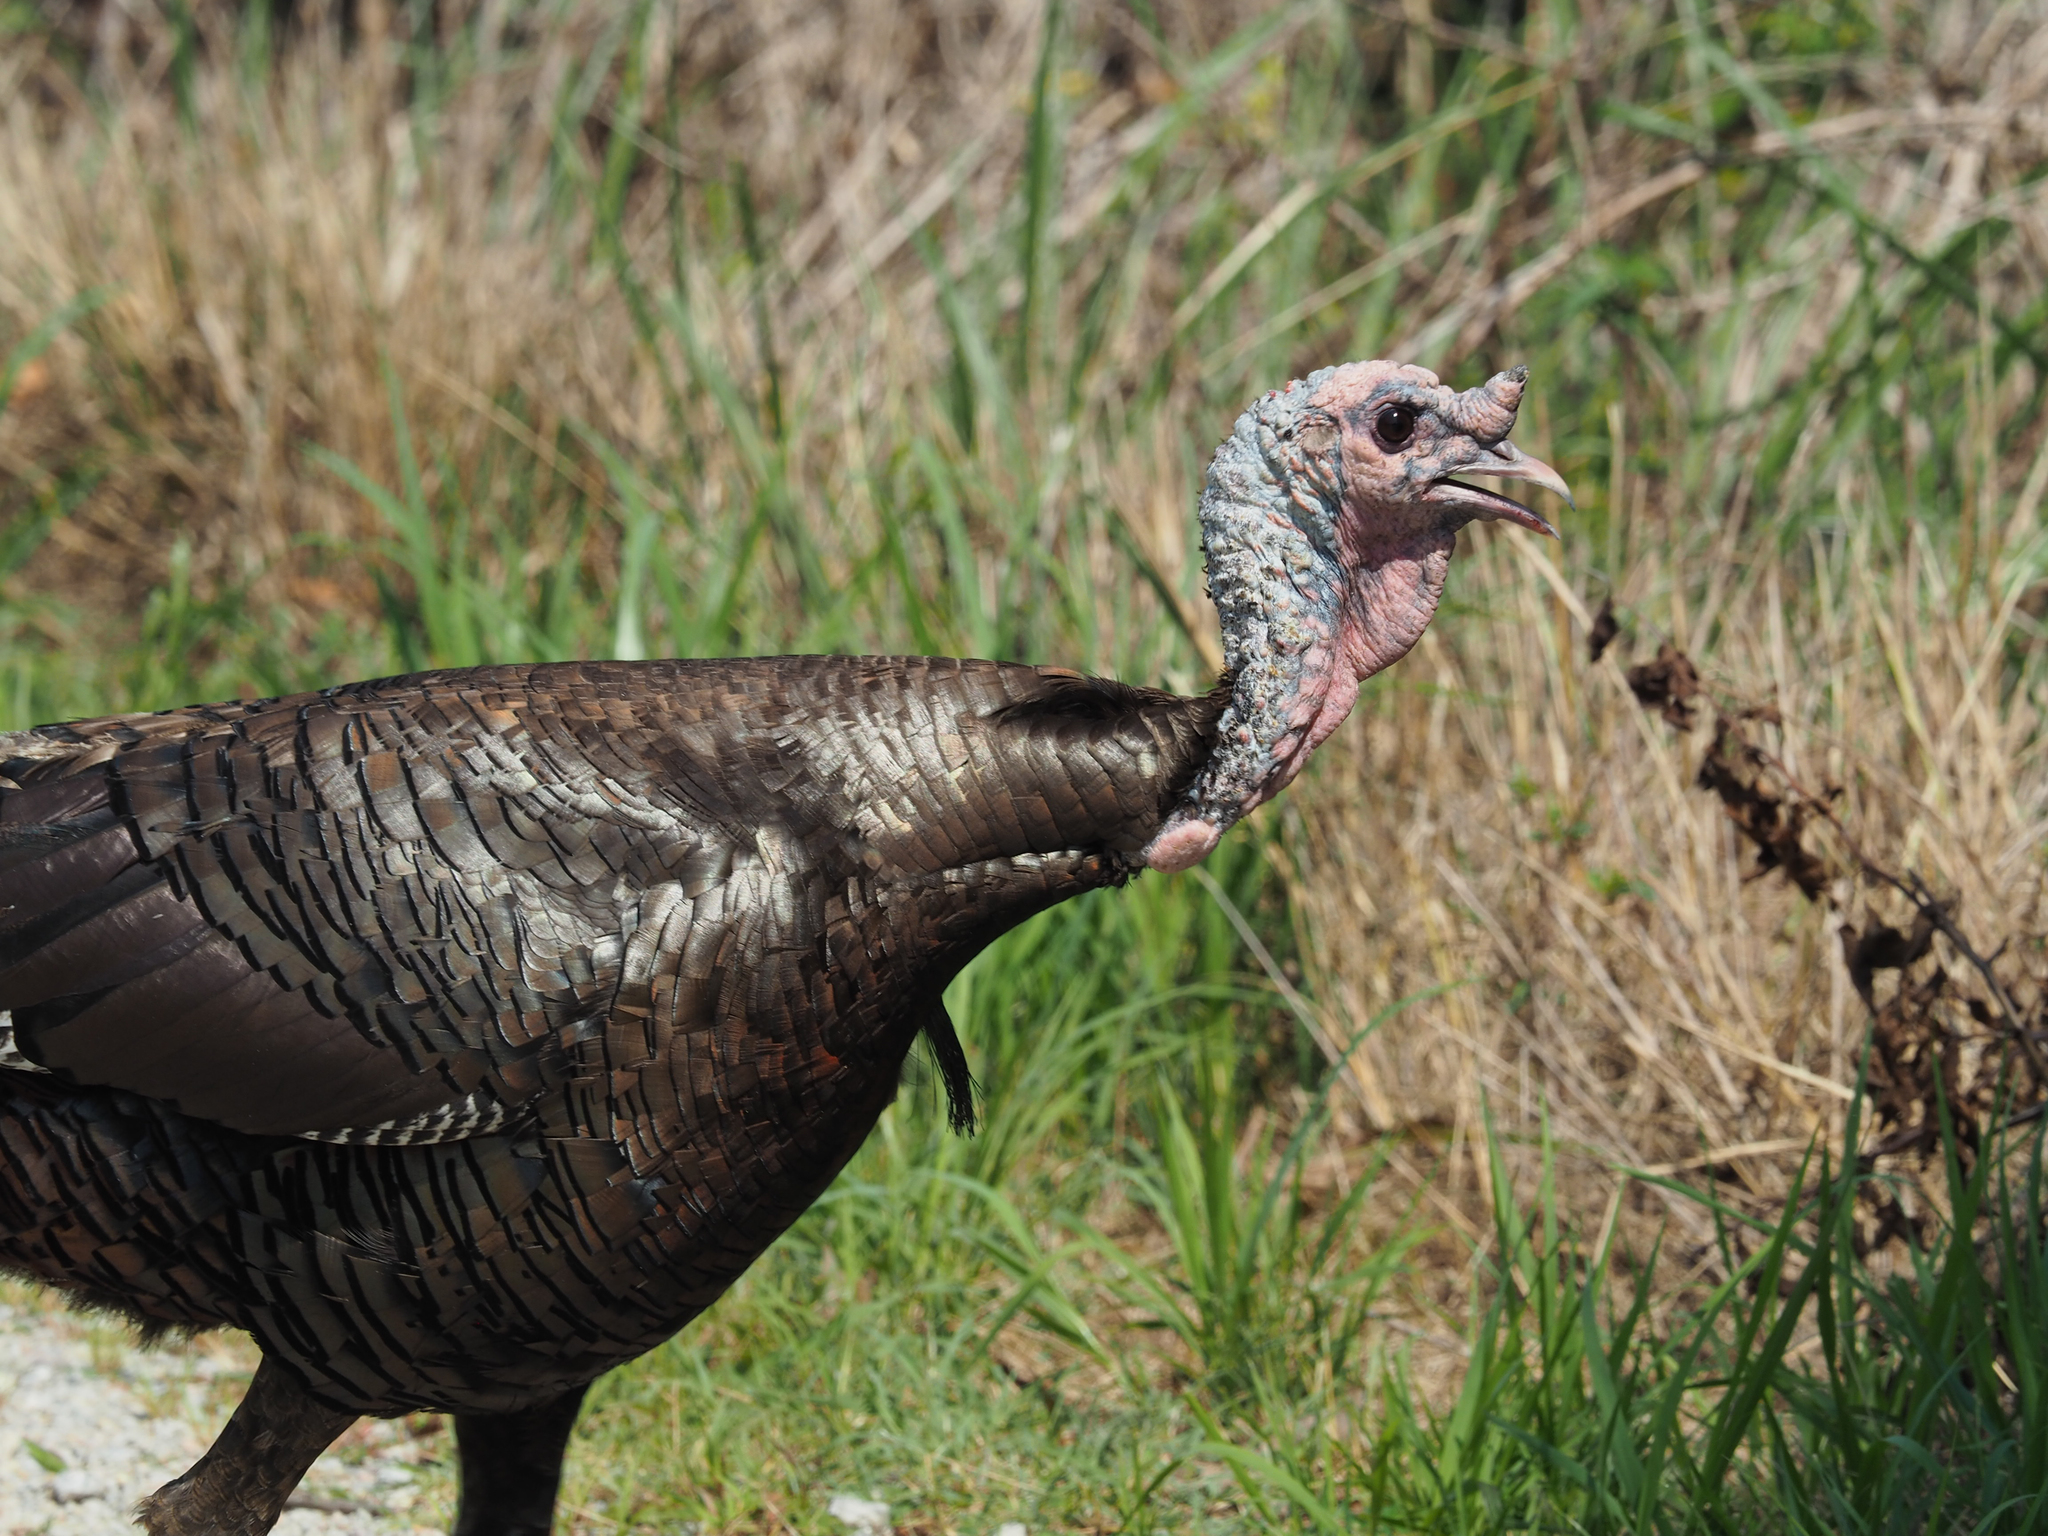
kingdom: Animalia
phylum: Chordata
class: Aves
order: Galliformes
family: Phasianidae
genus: Meleagris
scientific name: Meleagris gallopavo
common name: Wild turkey
